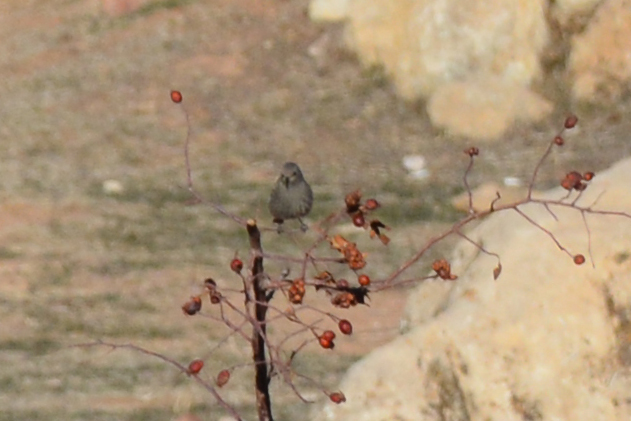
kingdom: Animalia
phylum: Chordata
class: Aves
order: Passeriformes
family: Muscicapidae
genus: Phoenicurus
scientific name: Phoenicurus ochruros
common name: Black redstart
